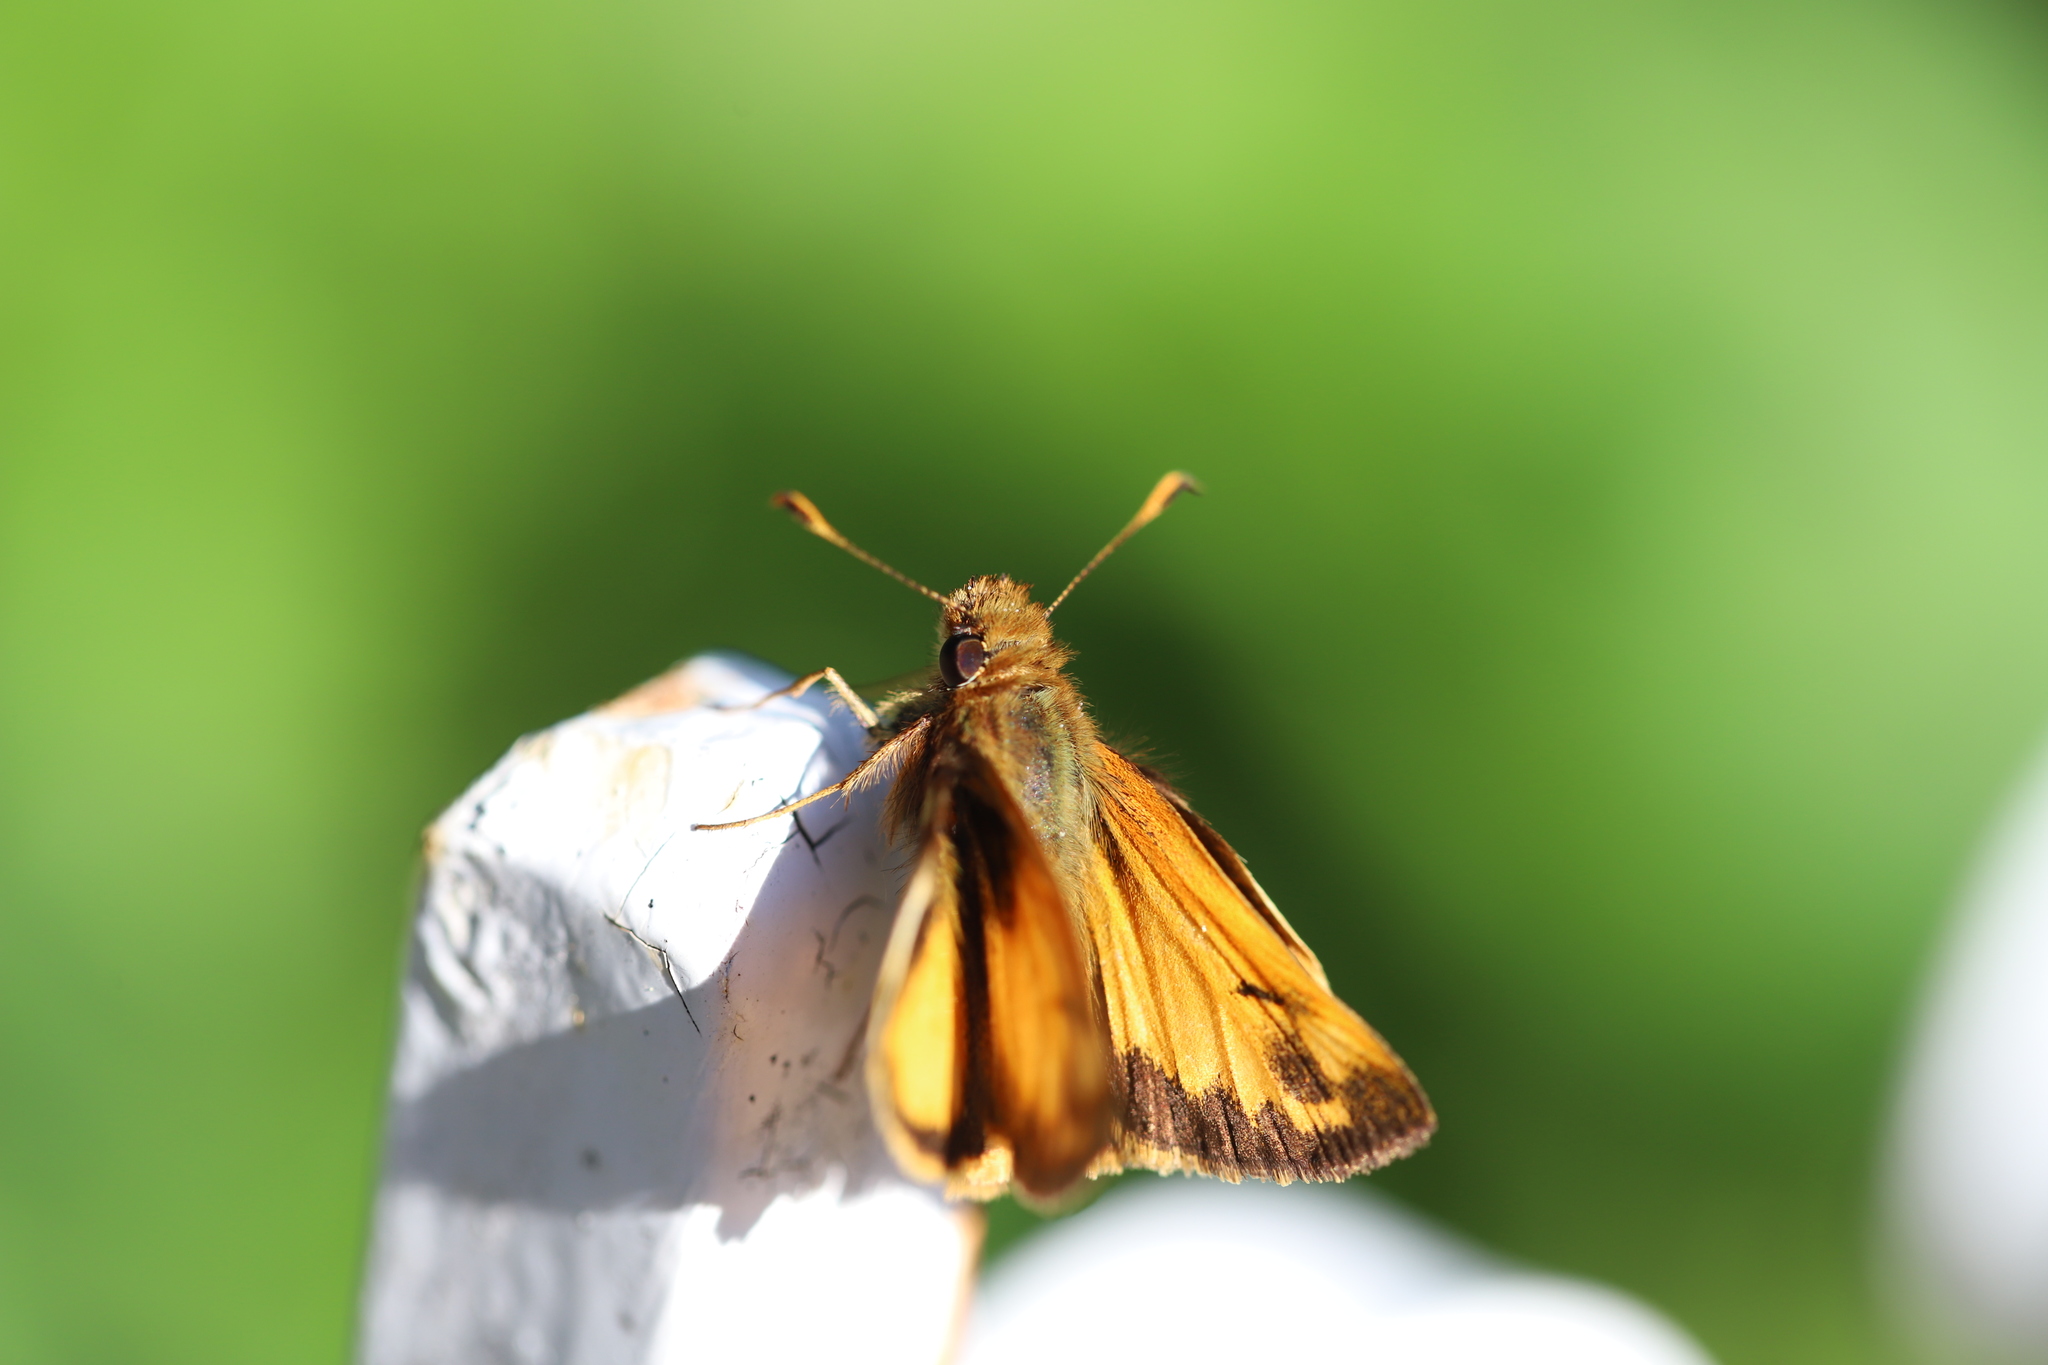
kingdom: Animalia
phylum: Arthropoda
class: Insecta
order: Lepidoptera
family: Hesperiidae
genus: Lon
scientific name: Lon zabulon
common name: Zabulon skipper
